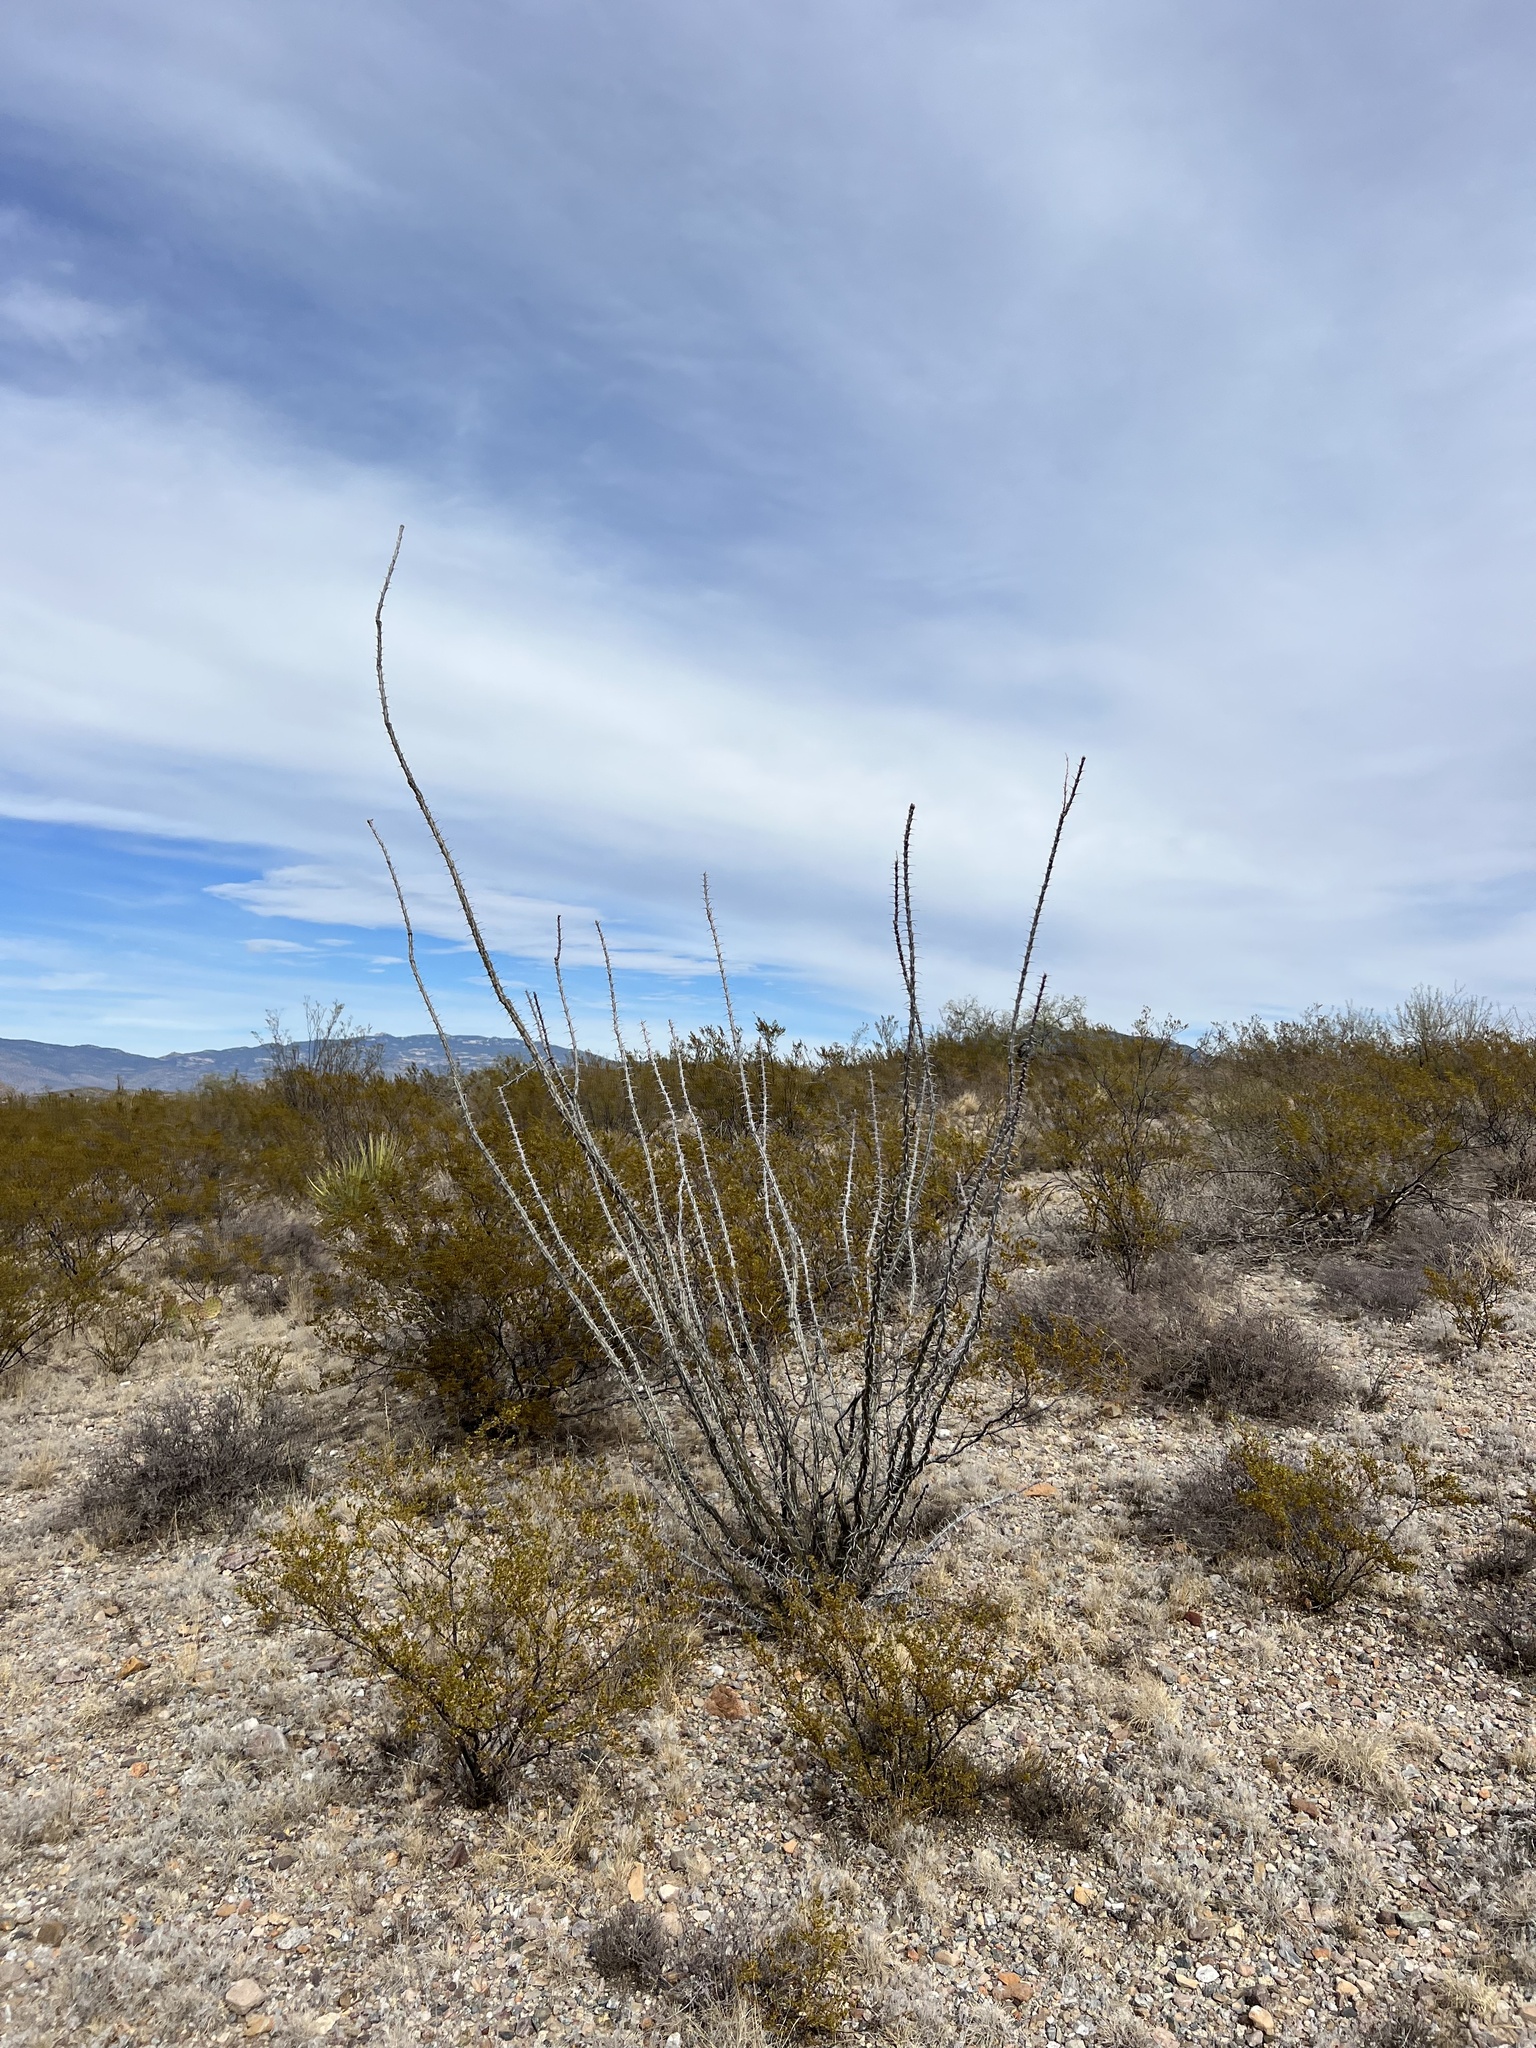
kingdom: Plantae
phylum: Tracheophyta
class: Magnoliopsida
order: Ericales
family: Fouquieriaceae
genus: Fouquieria
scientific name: Fouquieria splendens
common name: Vine-cactus
